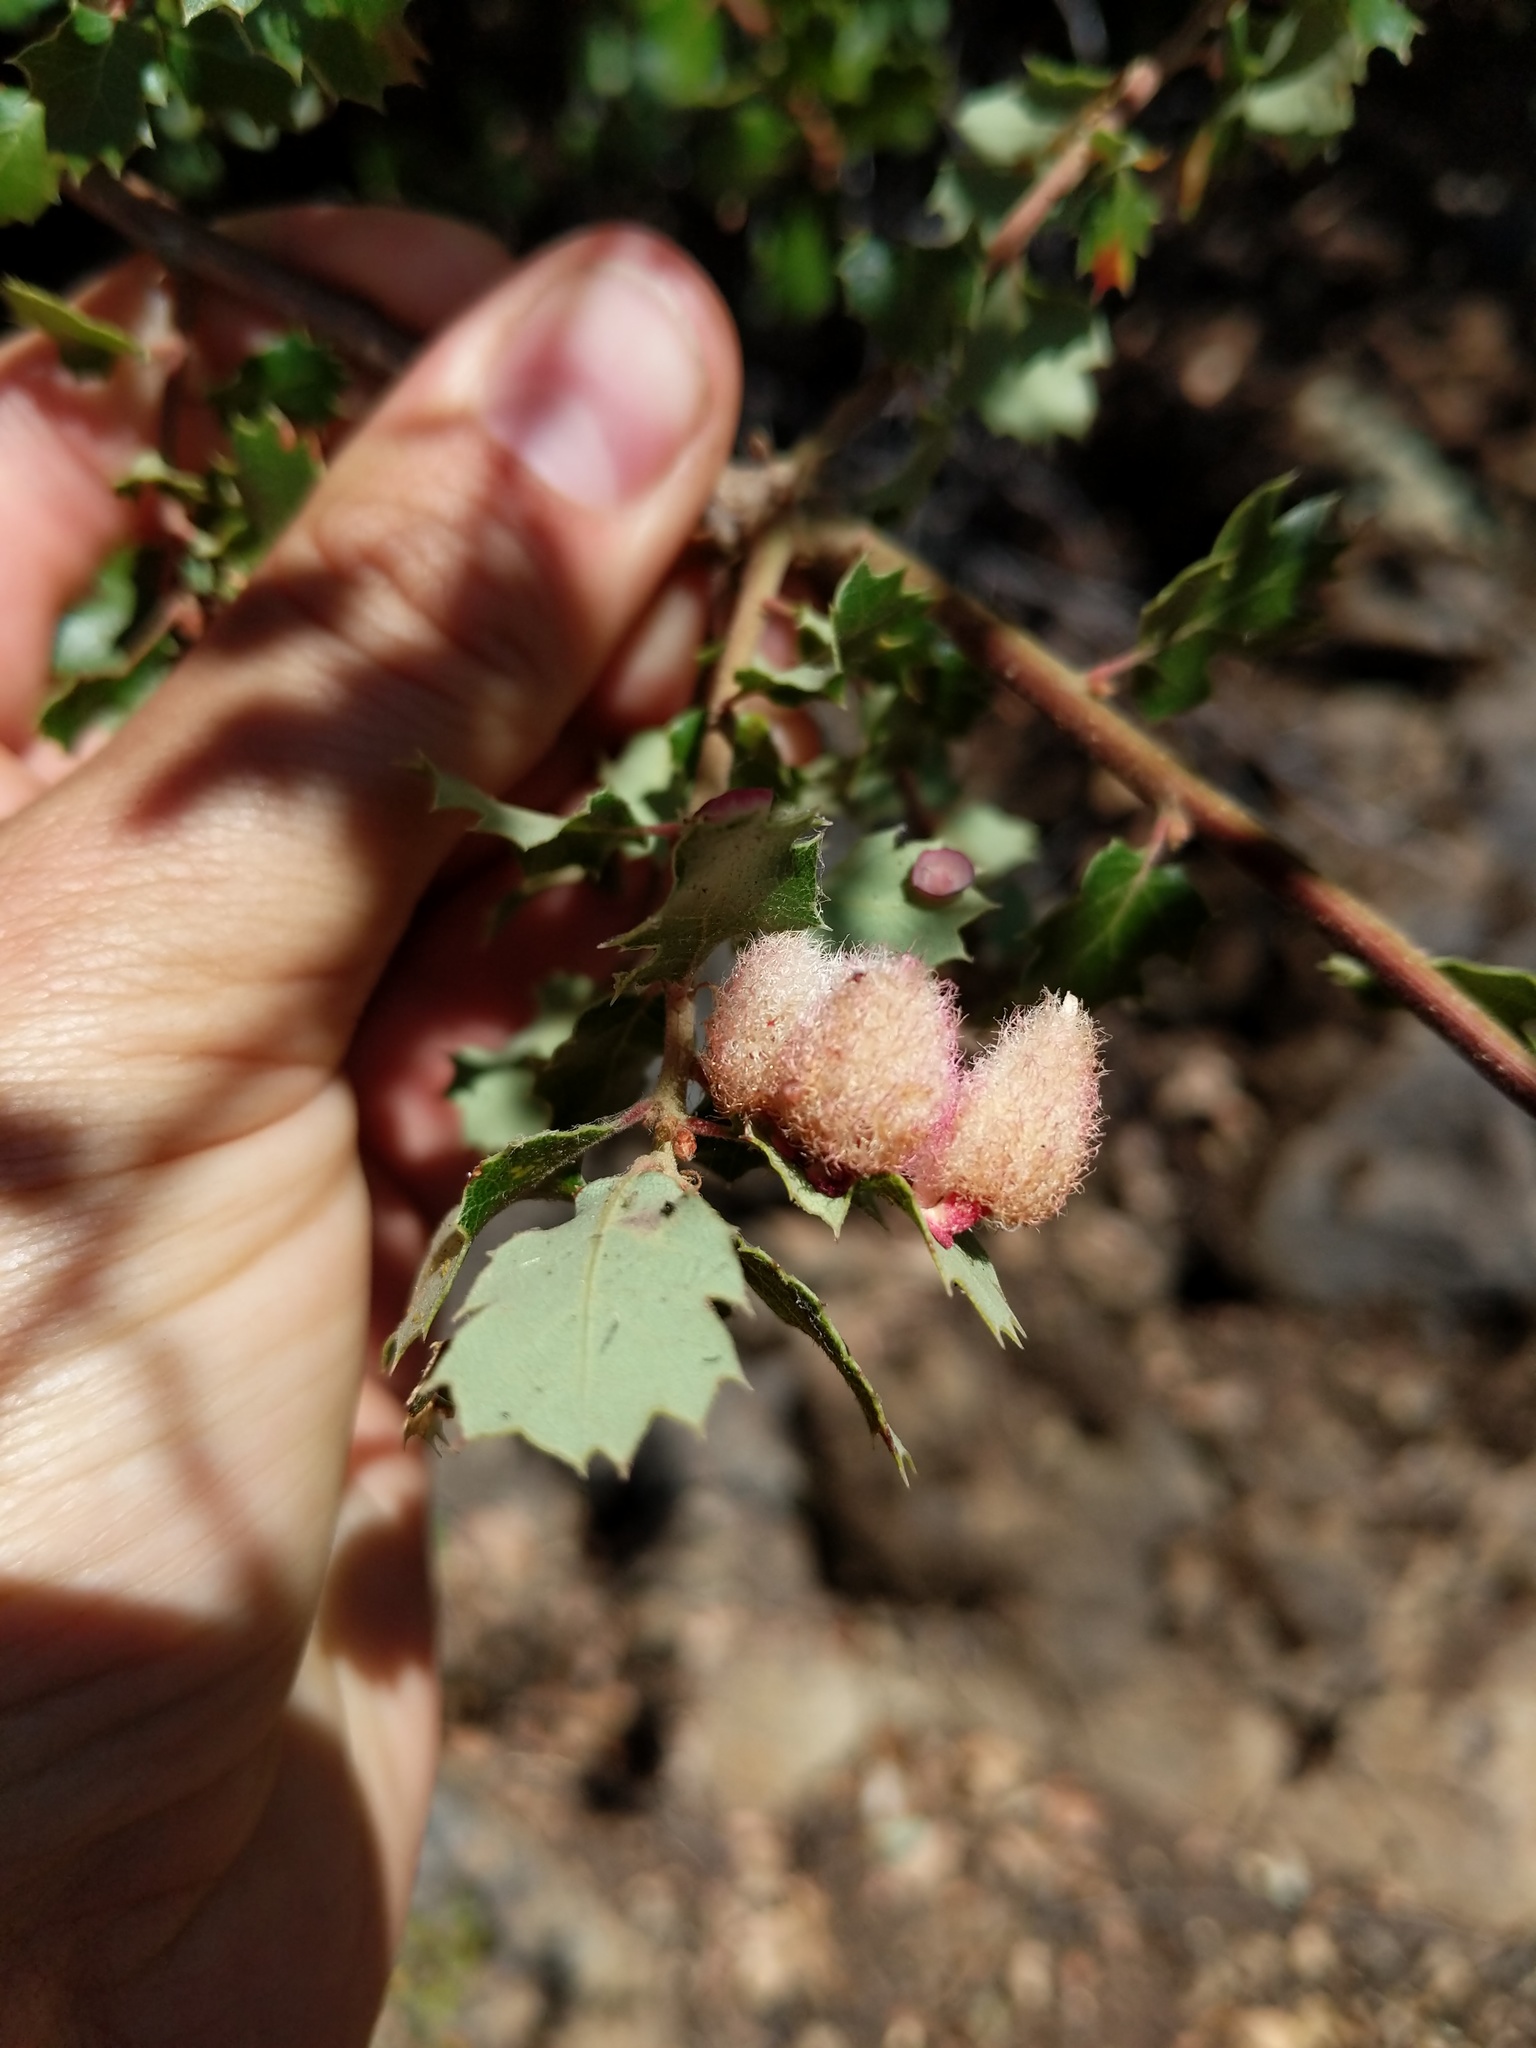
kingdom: Animalia
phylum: Arthropoda
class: Insecta
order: Hymenoptera
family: Cynipidae
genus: Andricus
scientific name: Andricus
